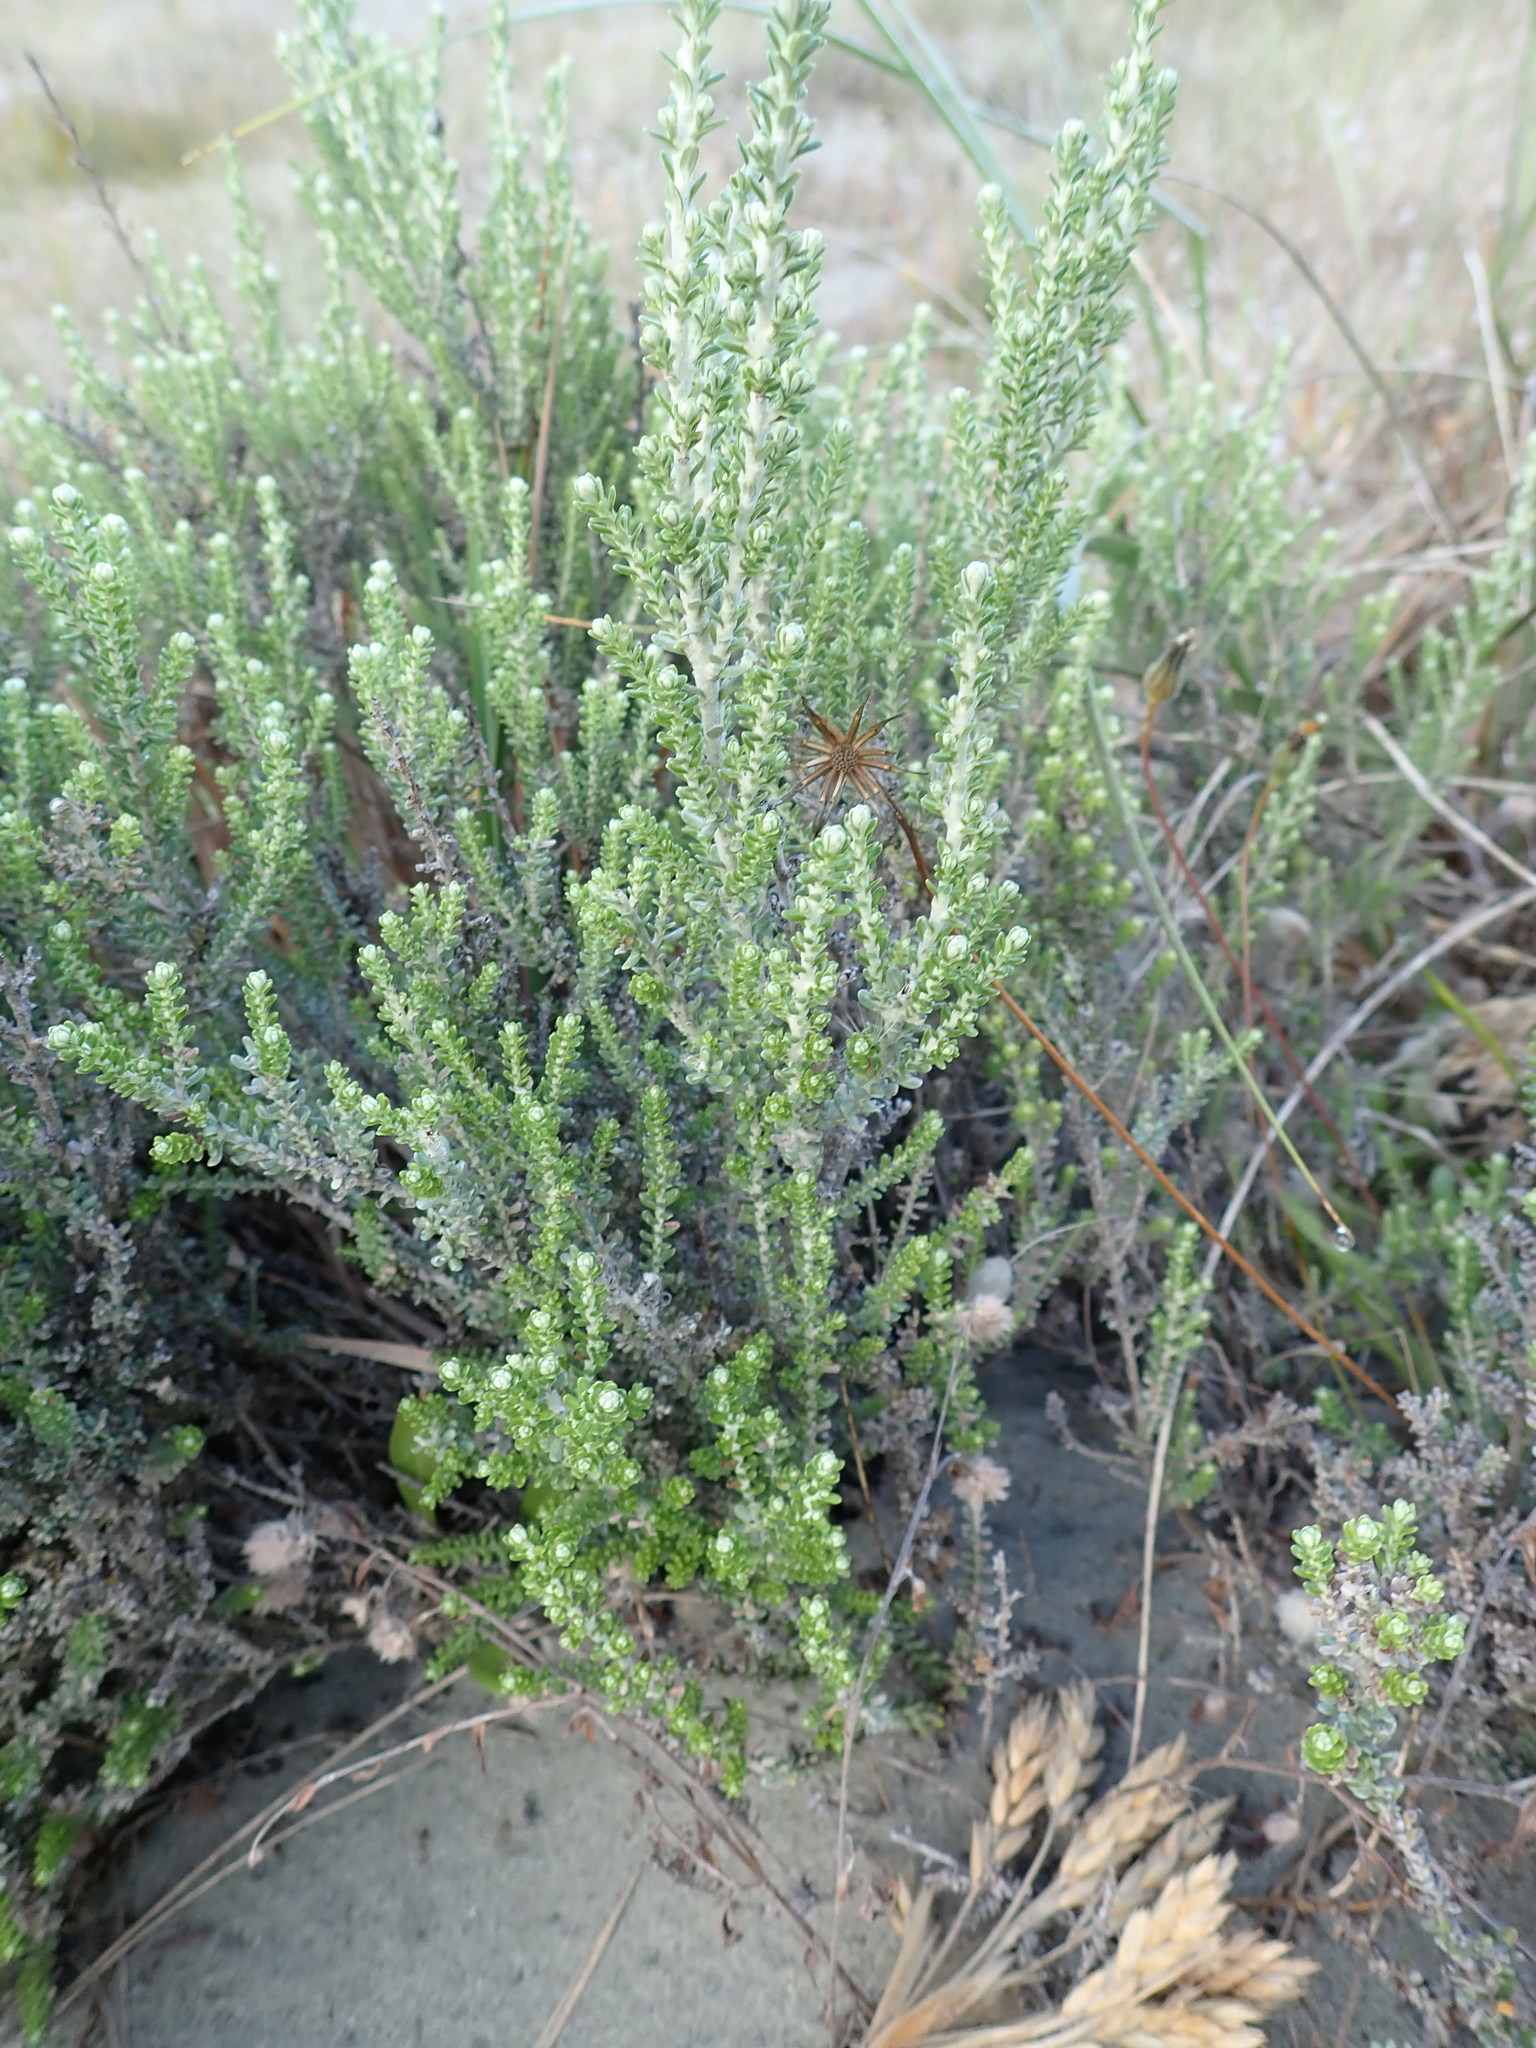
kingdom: Plantae
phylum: Tracheophyta
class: Magnoliopsida
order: Asterales
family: Asteraceae
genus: Ozothamnus
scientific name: Ozothamnus leptophyllus
